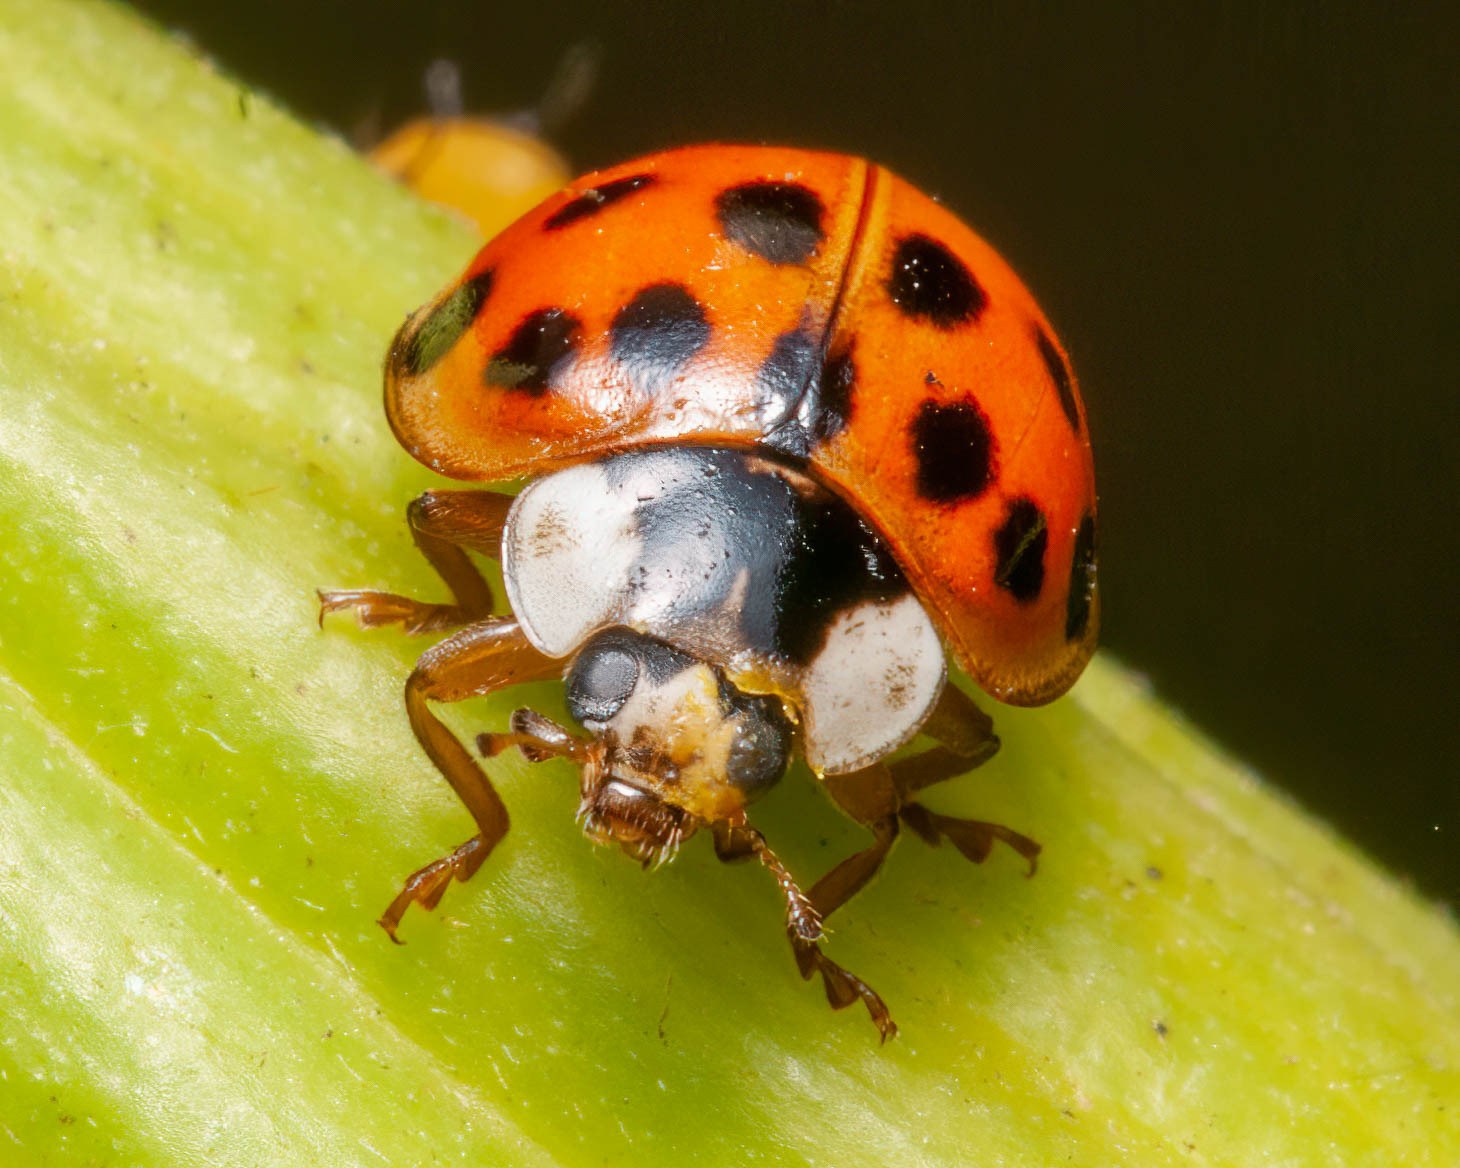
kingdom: Animalia
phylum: Arthropoda
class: Insecta
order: Coleoptera
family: Coccinellidae
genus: Harmonia
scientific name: Harmonia axyridis
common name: Harlequin ladybird
